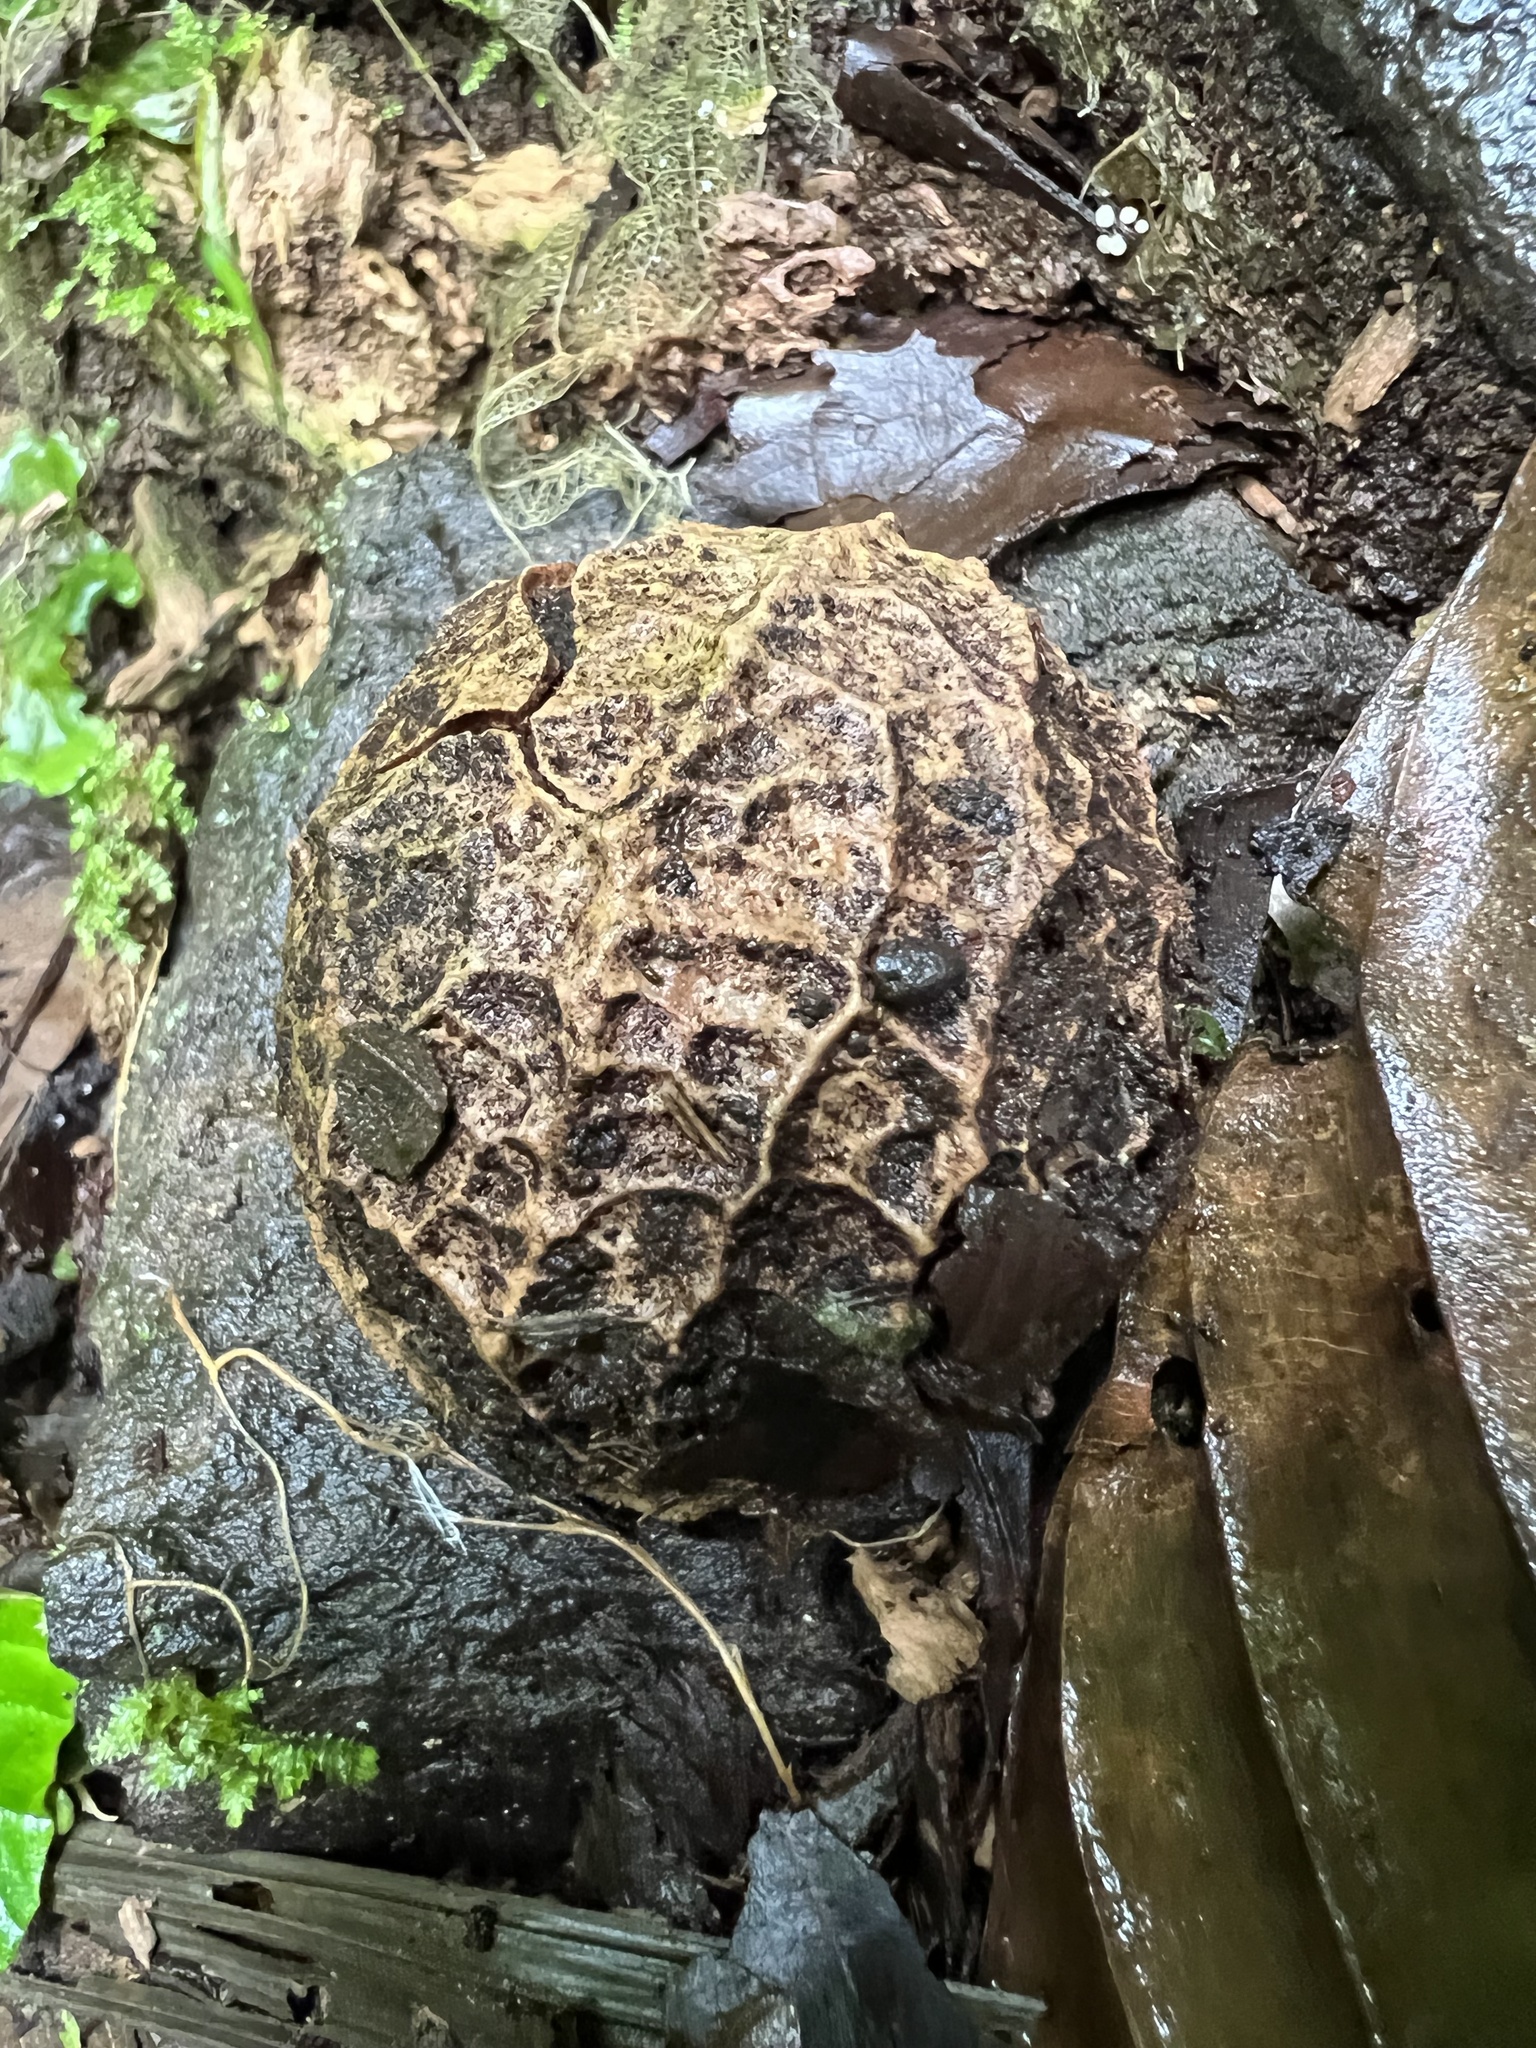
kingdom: Plantae
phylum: Tracheophyta
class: Magnoliopsida
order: Metteniusales
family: Metteniusaceae
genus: Calatola
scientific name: Calatola costaricensis
